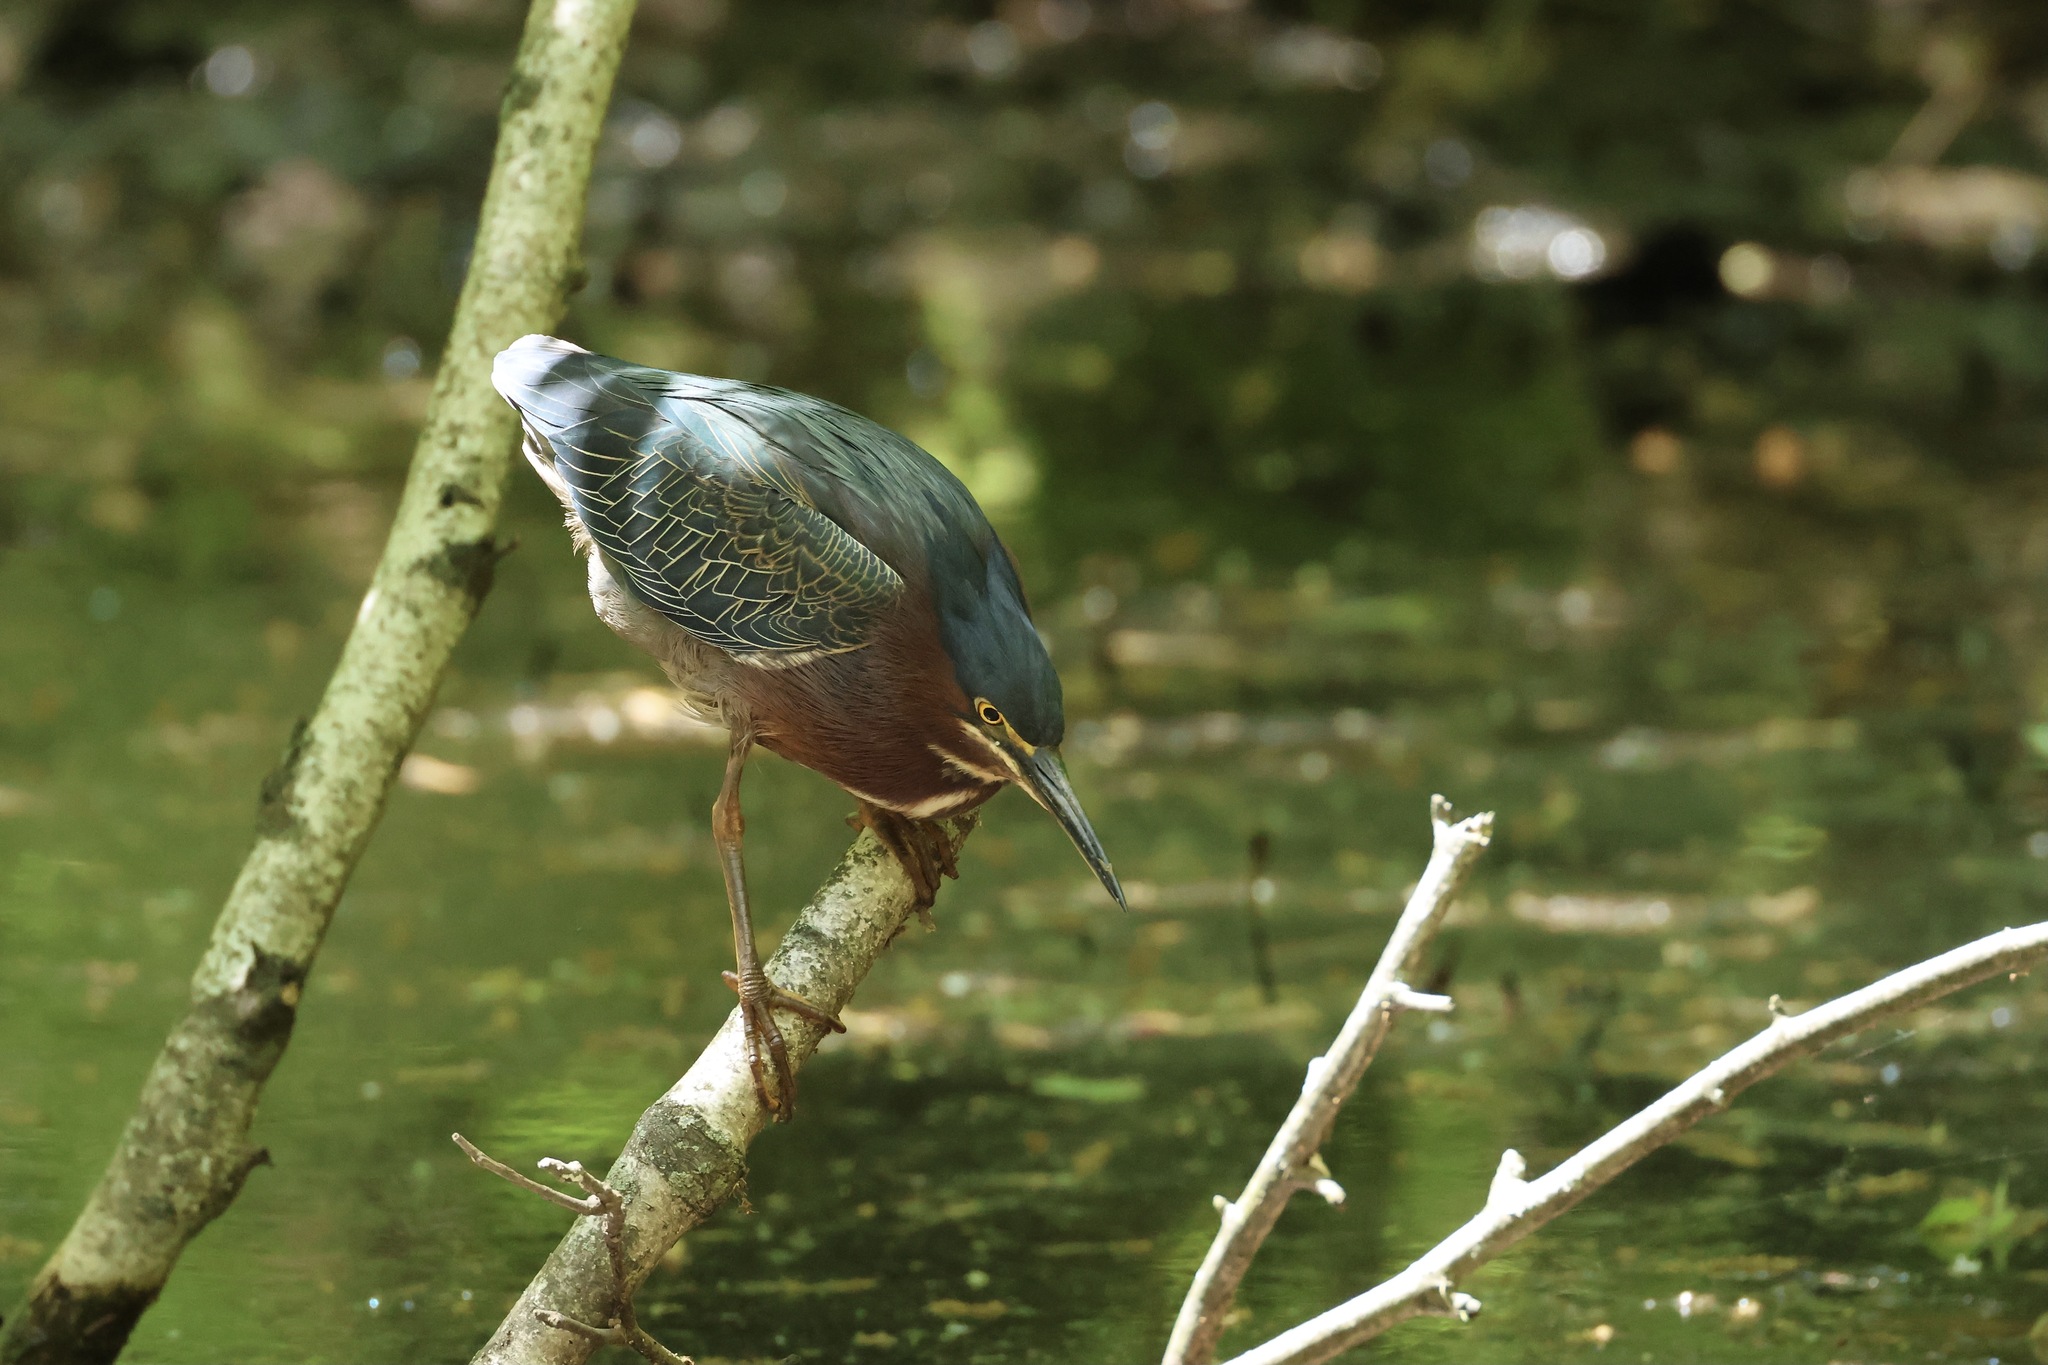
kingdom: Animalia
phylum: Chordata
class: Aves
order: Pelecaniformes
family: Ardeidae
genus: Butorides
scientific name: Butorides virescens
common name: Green heron
